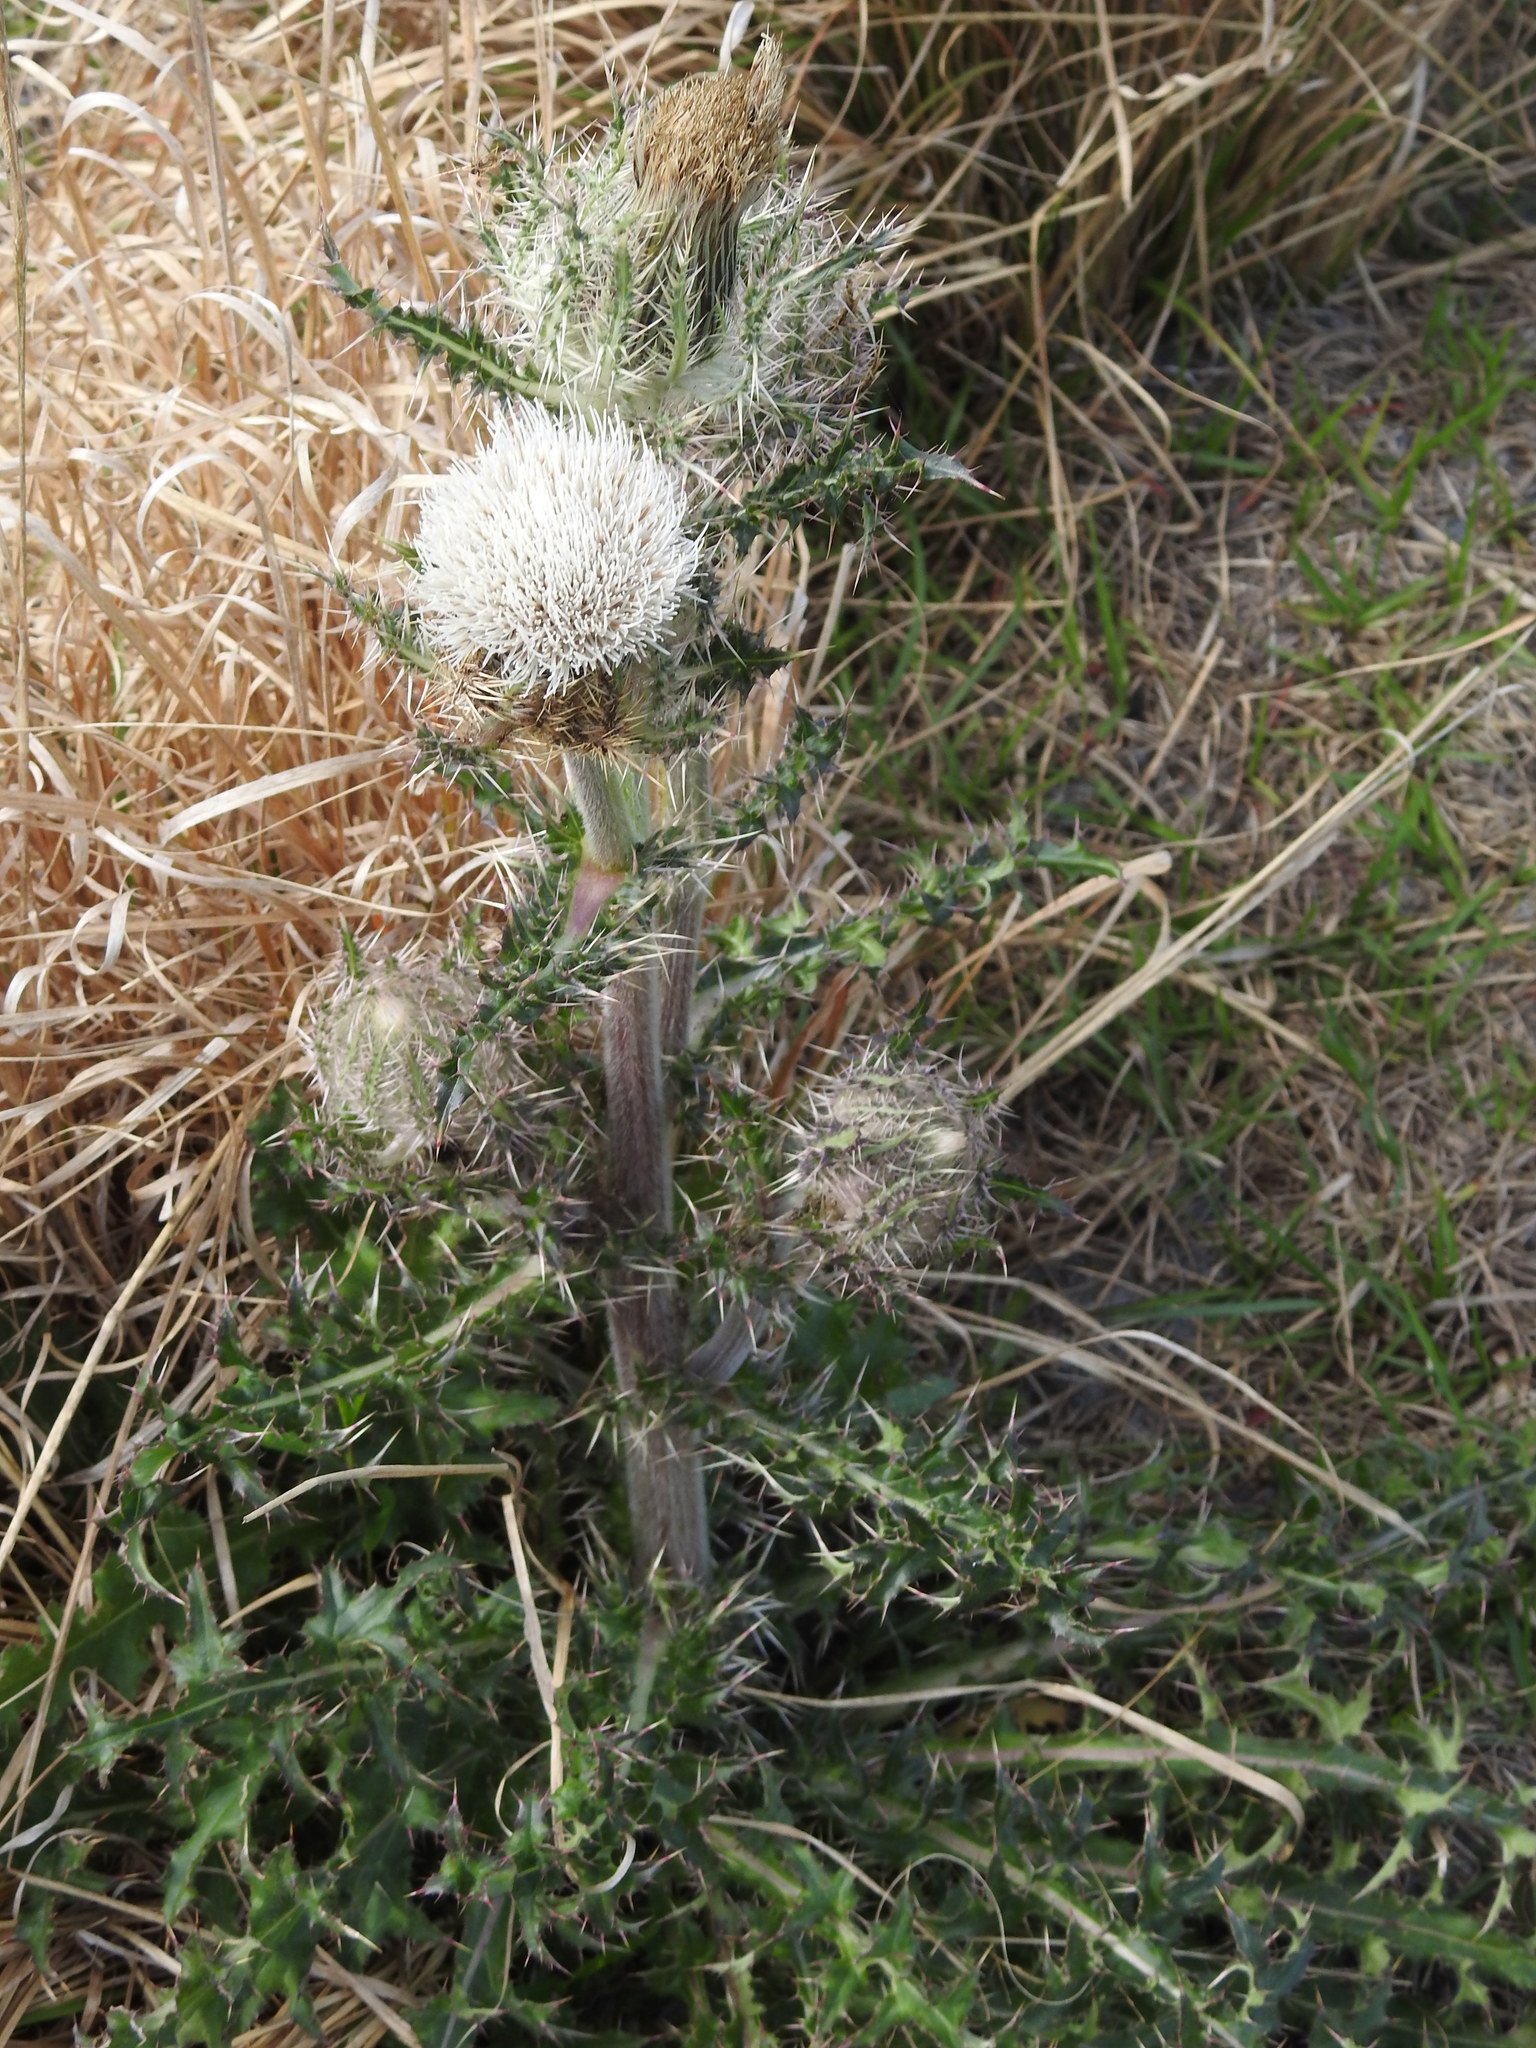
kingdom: Plantae
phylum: Tracheophyta
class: Magnoliopsida
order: Asterales
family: Asteraceae
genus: Cirsium
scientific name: Cirsium horridulum
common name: Bristly thistle
